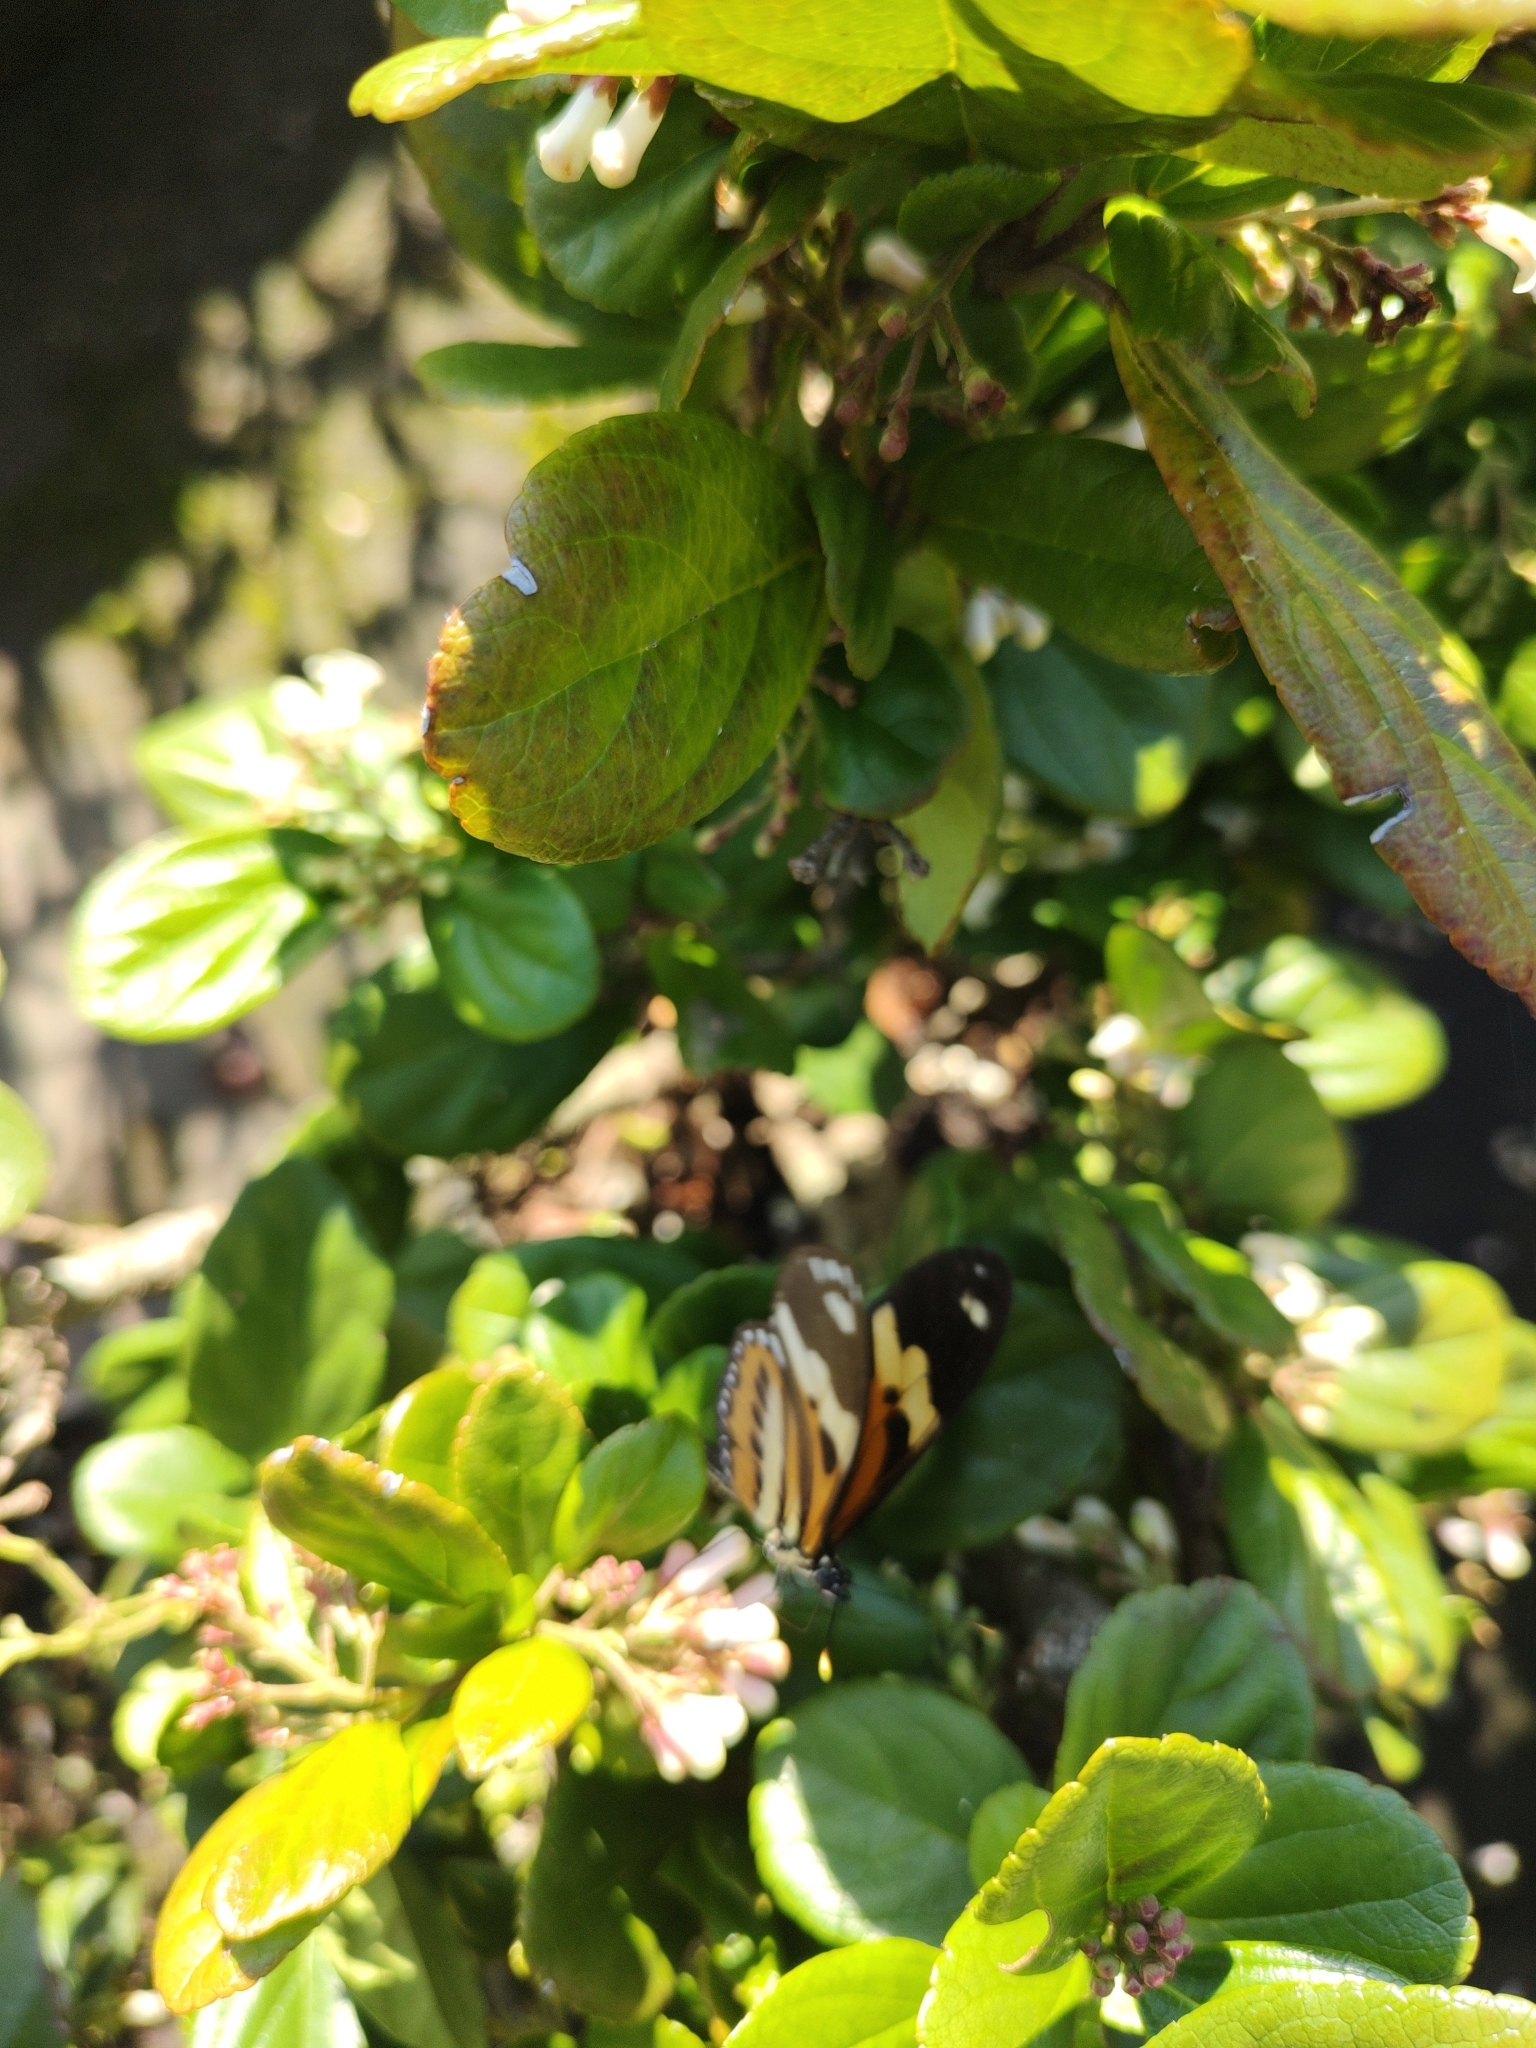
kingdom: Animalia
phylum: Arthropoda
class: Insecta
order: Lepidoptera
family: Nymphalidae
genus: Eueides
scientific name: Eueides isabella
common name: Isabella's longwing
